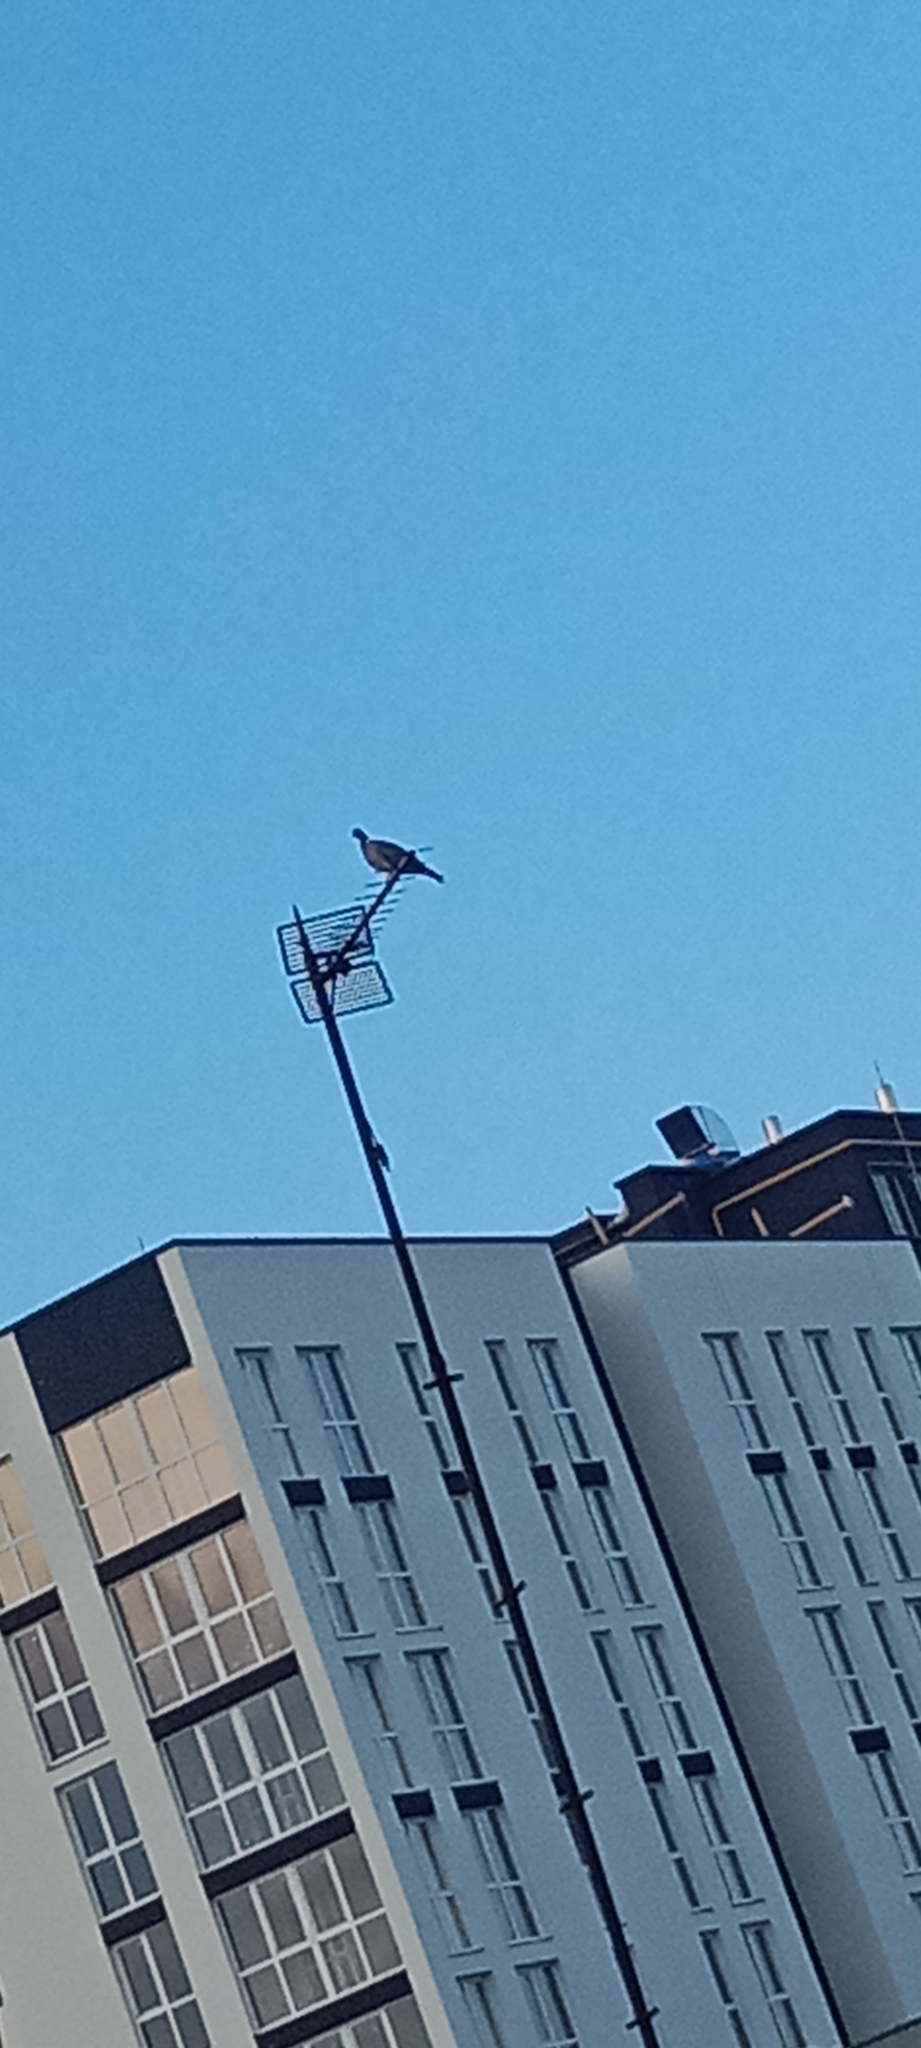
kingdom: Animalia
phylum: Chordata
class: Aves
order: Columbiformes
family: Columbidae
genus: Columba
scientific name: Columba palumbus
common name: Common wood pigeon
